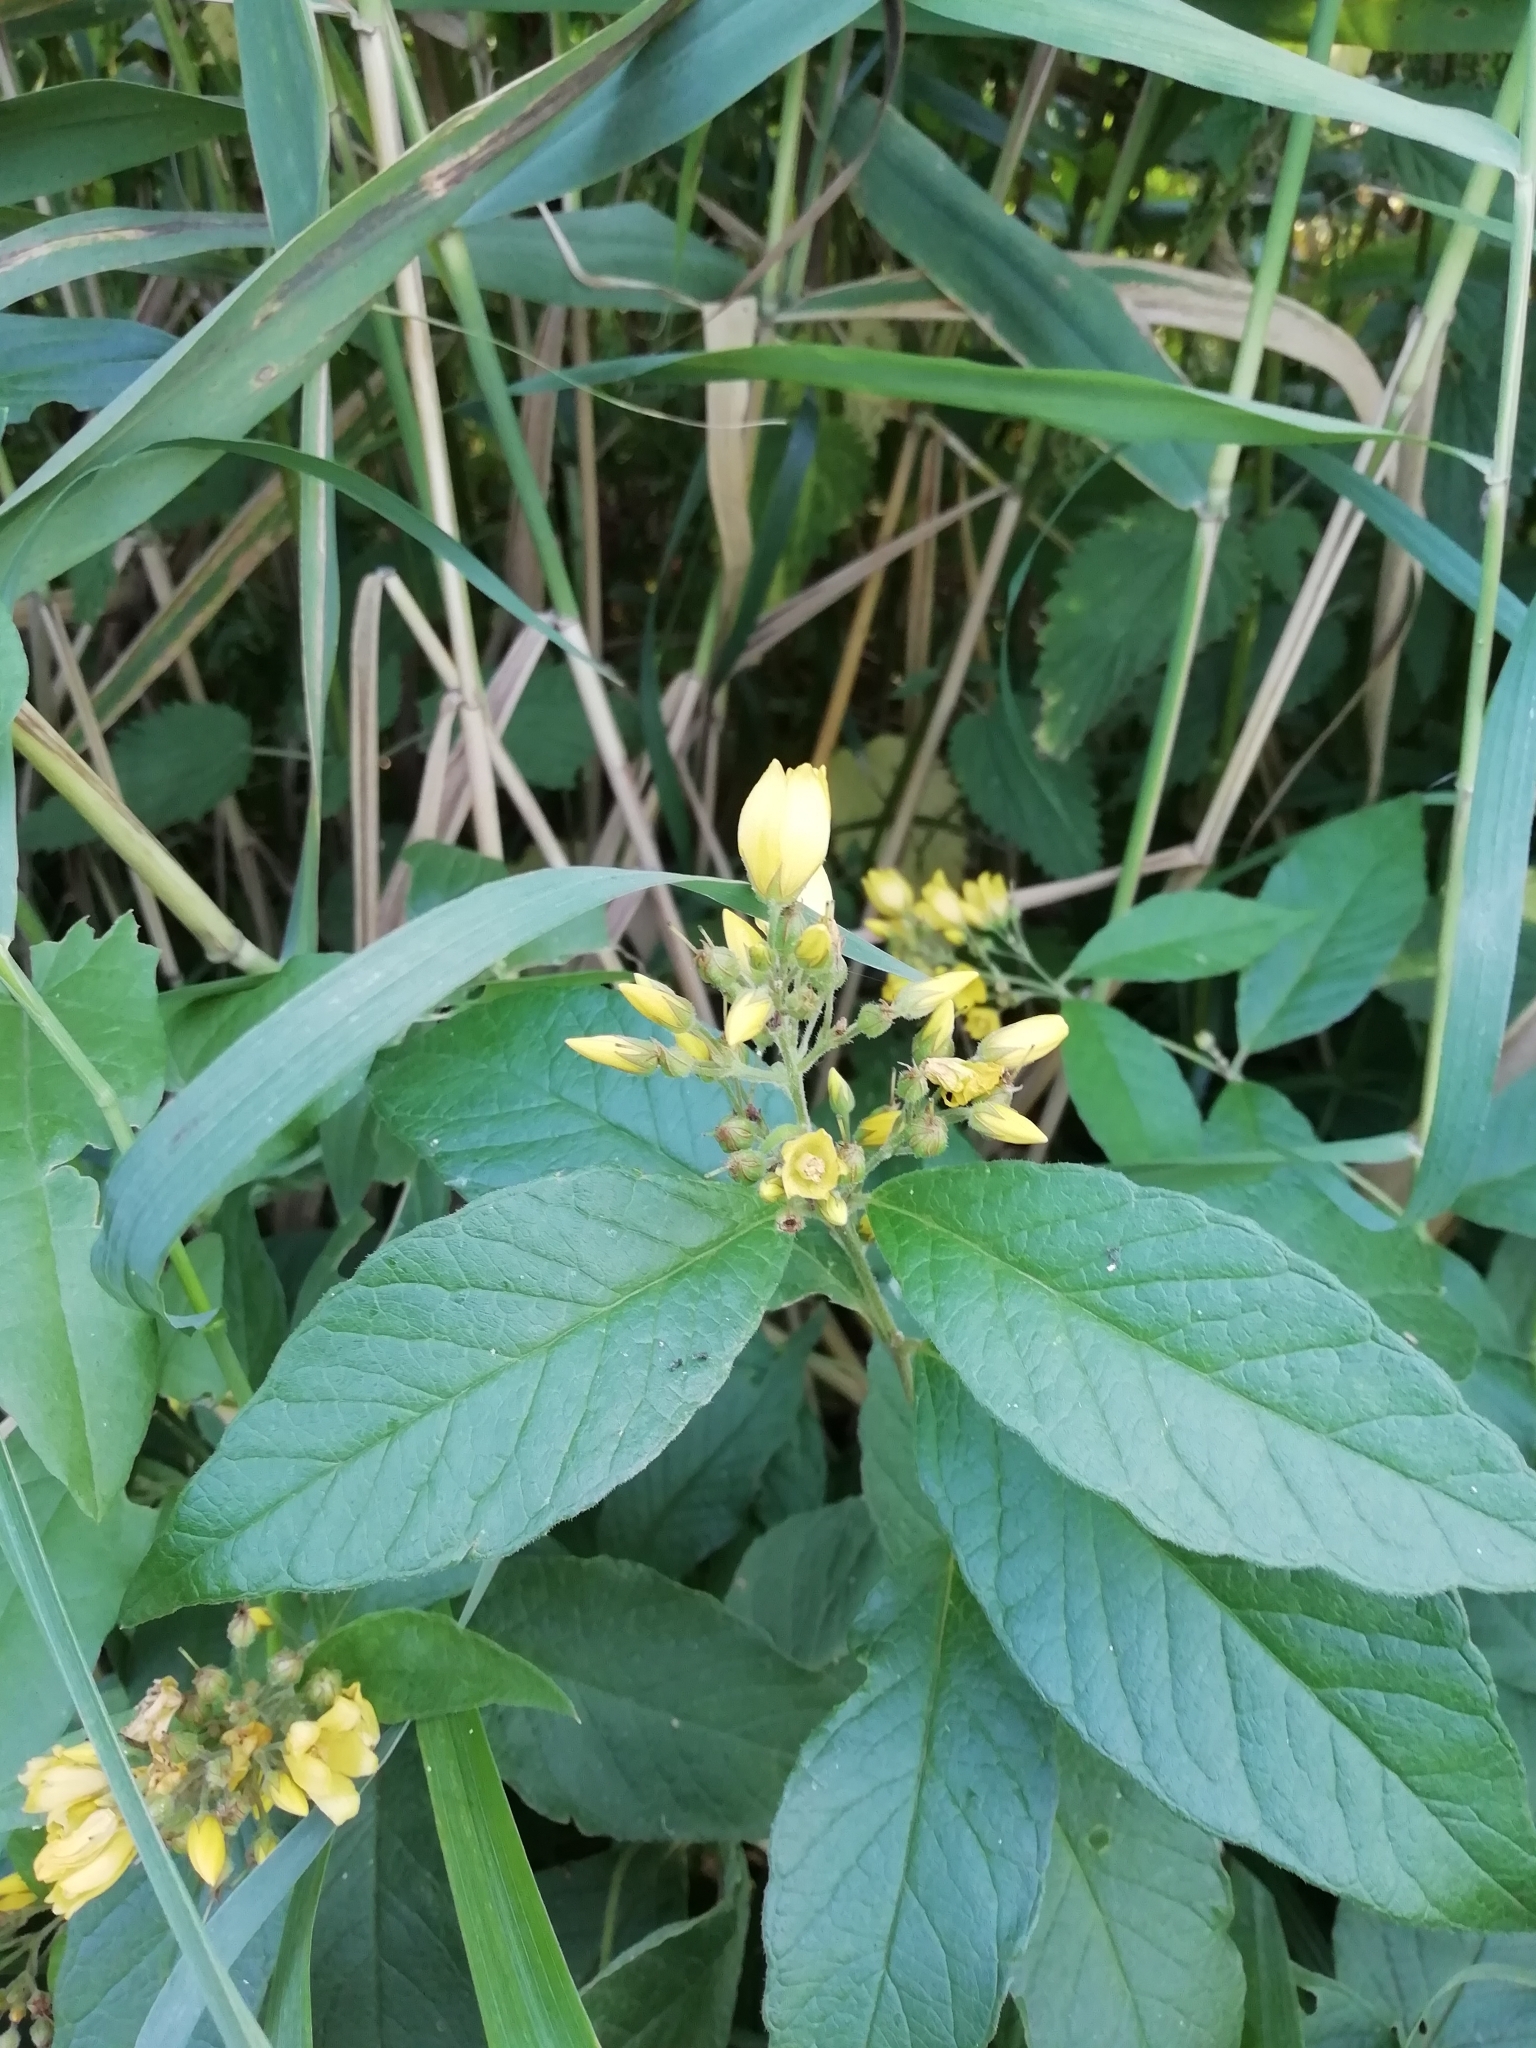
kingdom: Plantae
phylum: Tracheophyta
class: Magnoliopsida
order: Ericales
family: Primulaceae
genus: Lysimachia
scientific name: Lysimachia vulgaris
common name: Yellow loosestrife
